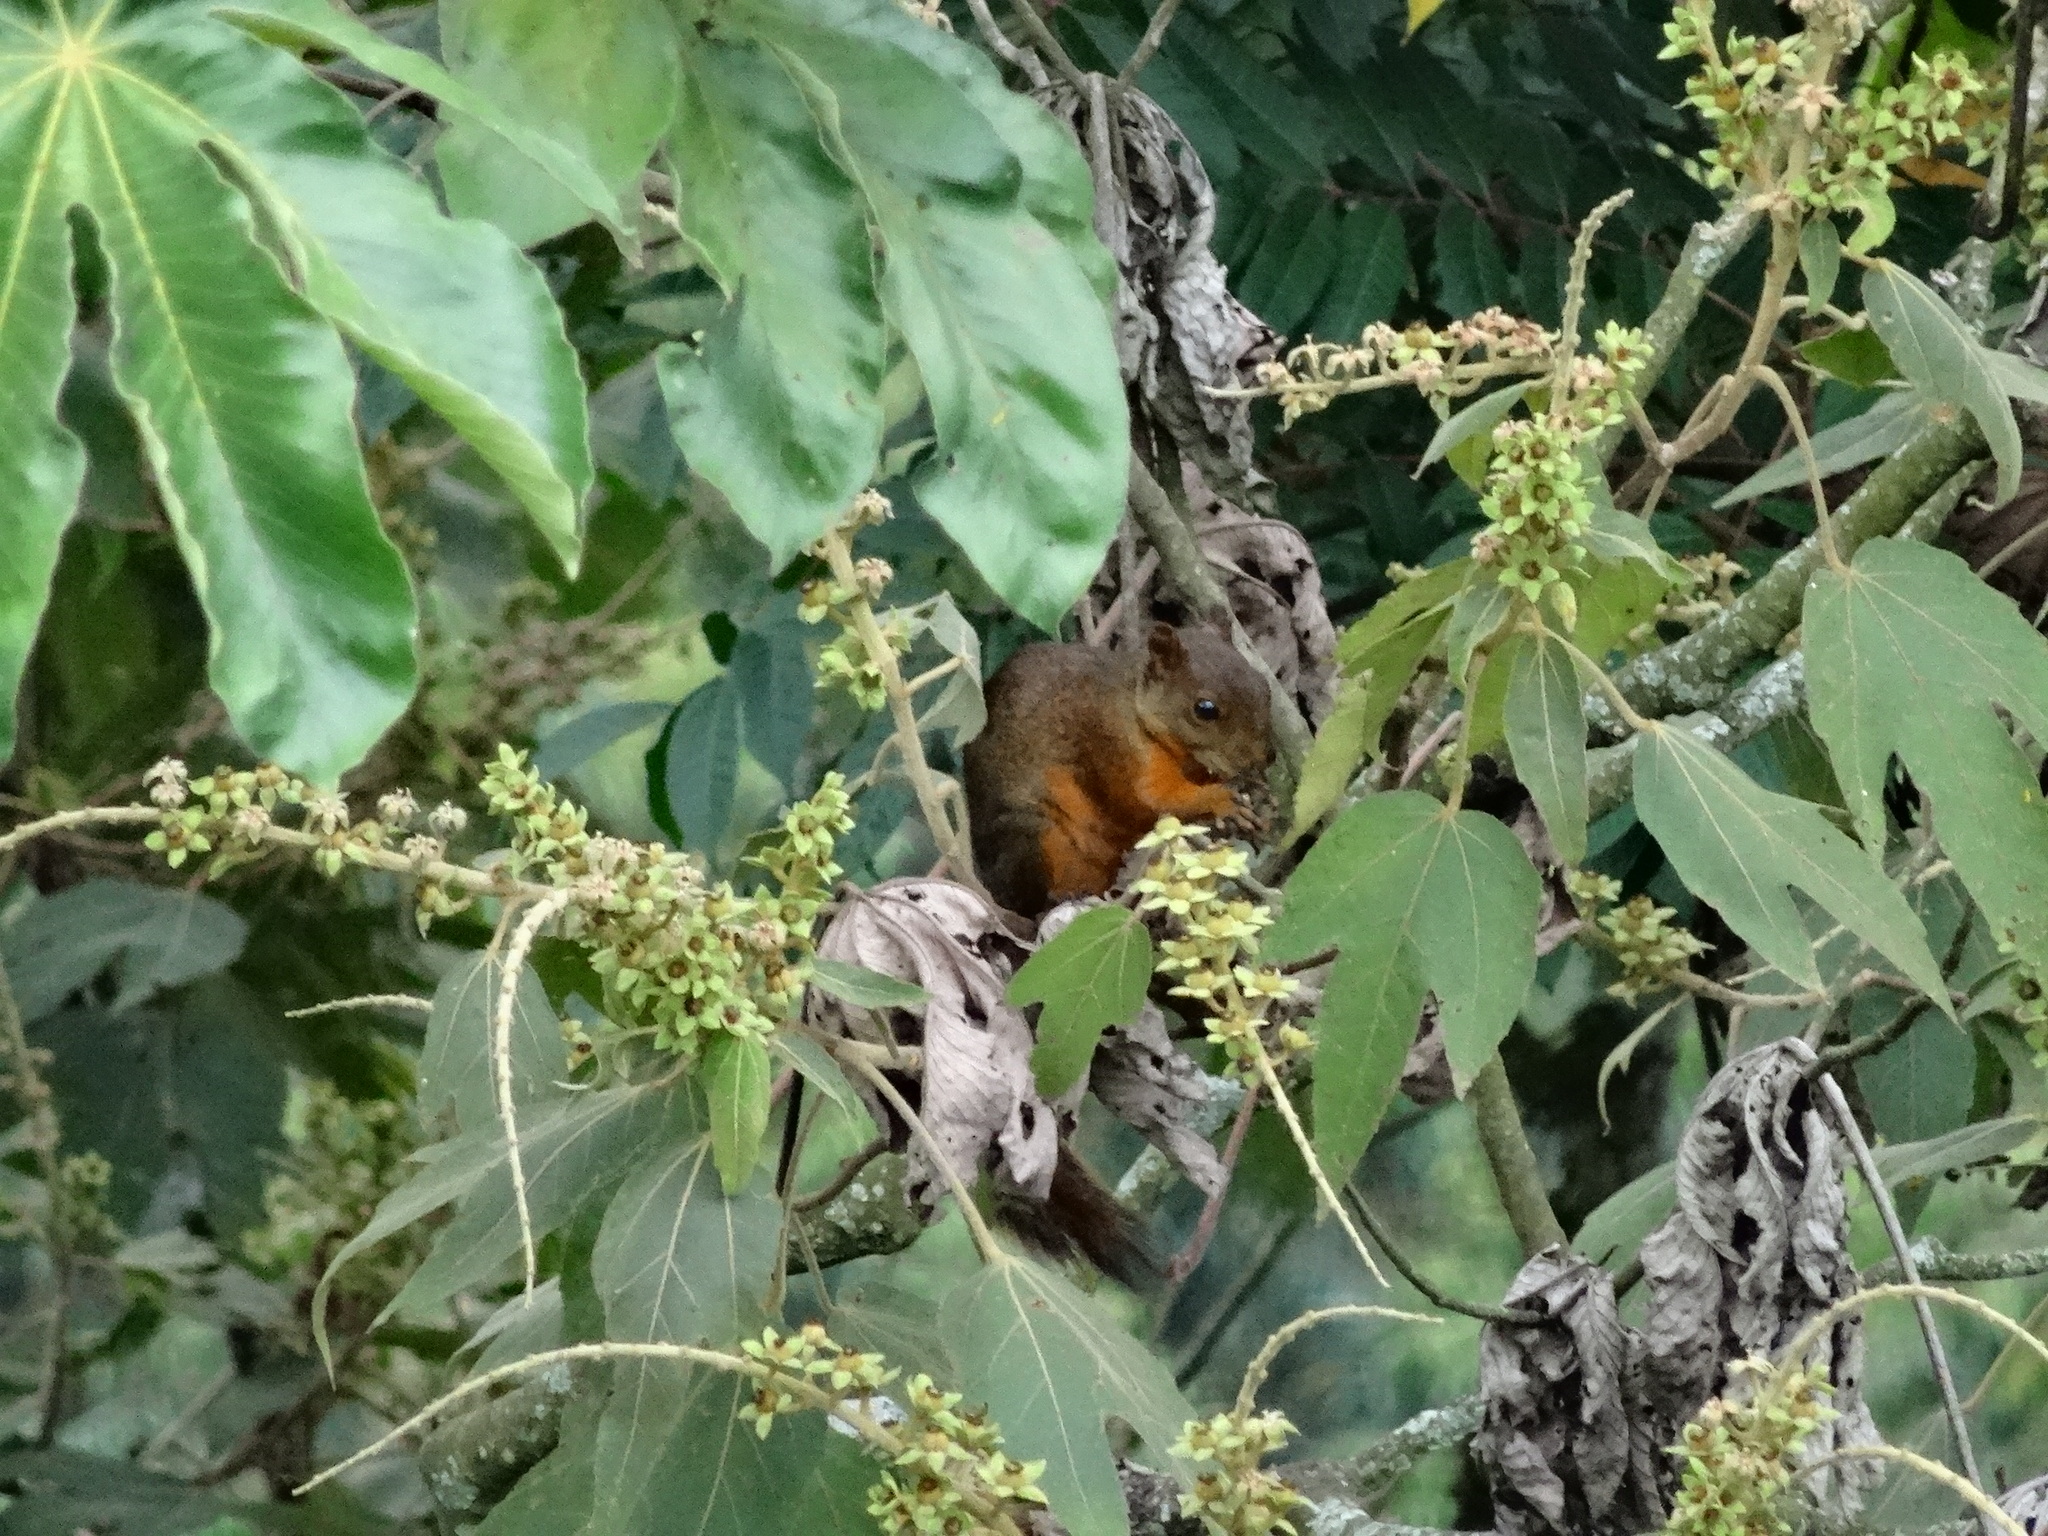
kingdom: Animalia
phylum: Chordata
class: Mammalia
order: Rodentia
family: Sciuridae
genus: Sciurus
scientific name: Sciurus granatensis
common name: Red-tailed squirrel
